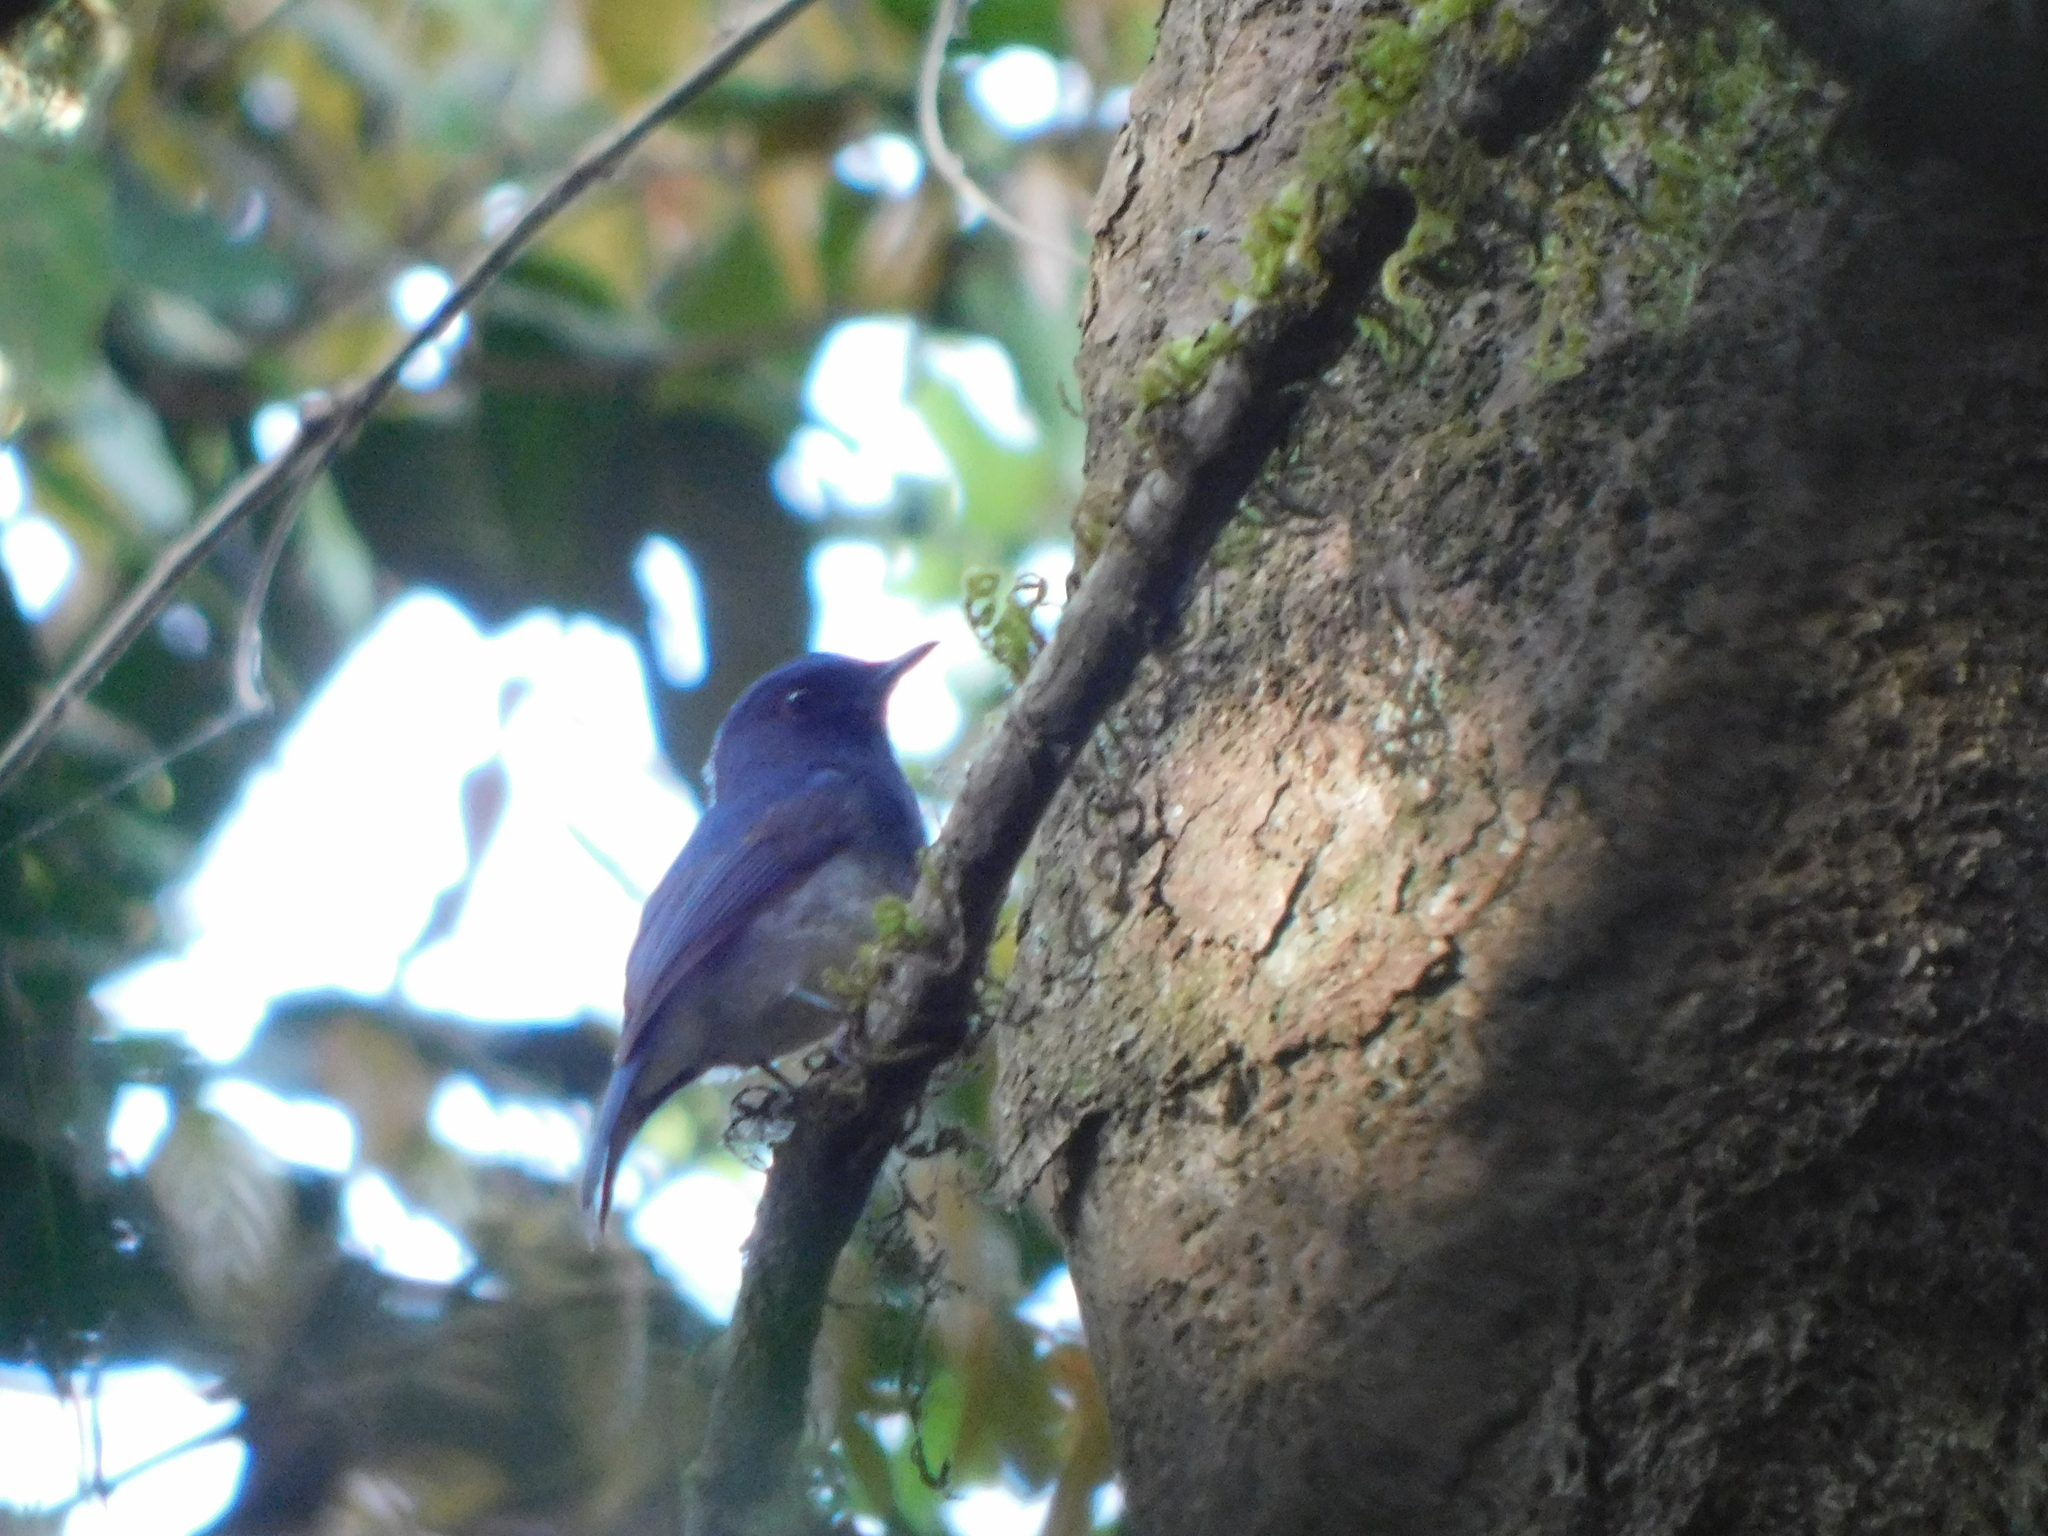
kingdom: Animalia
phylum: Chordata
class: Aves
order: Passeriformes
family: Muscicapidae
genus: Cyornis
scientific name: Cyornis pallidipes
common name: White-bellied blue flycatcher
